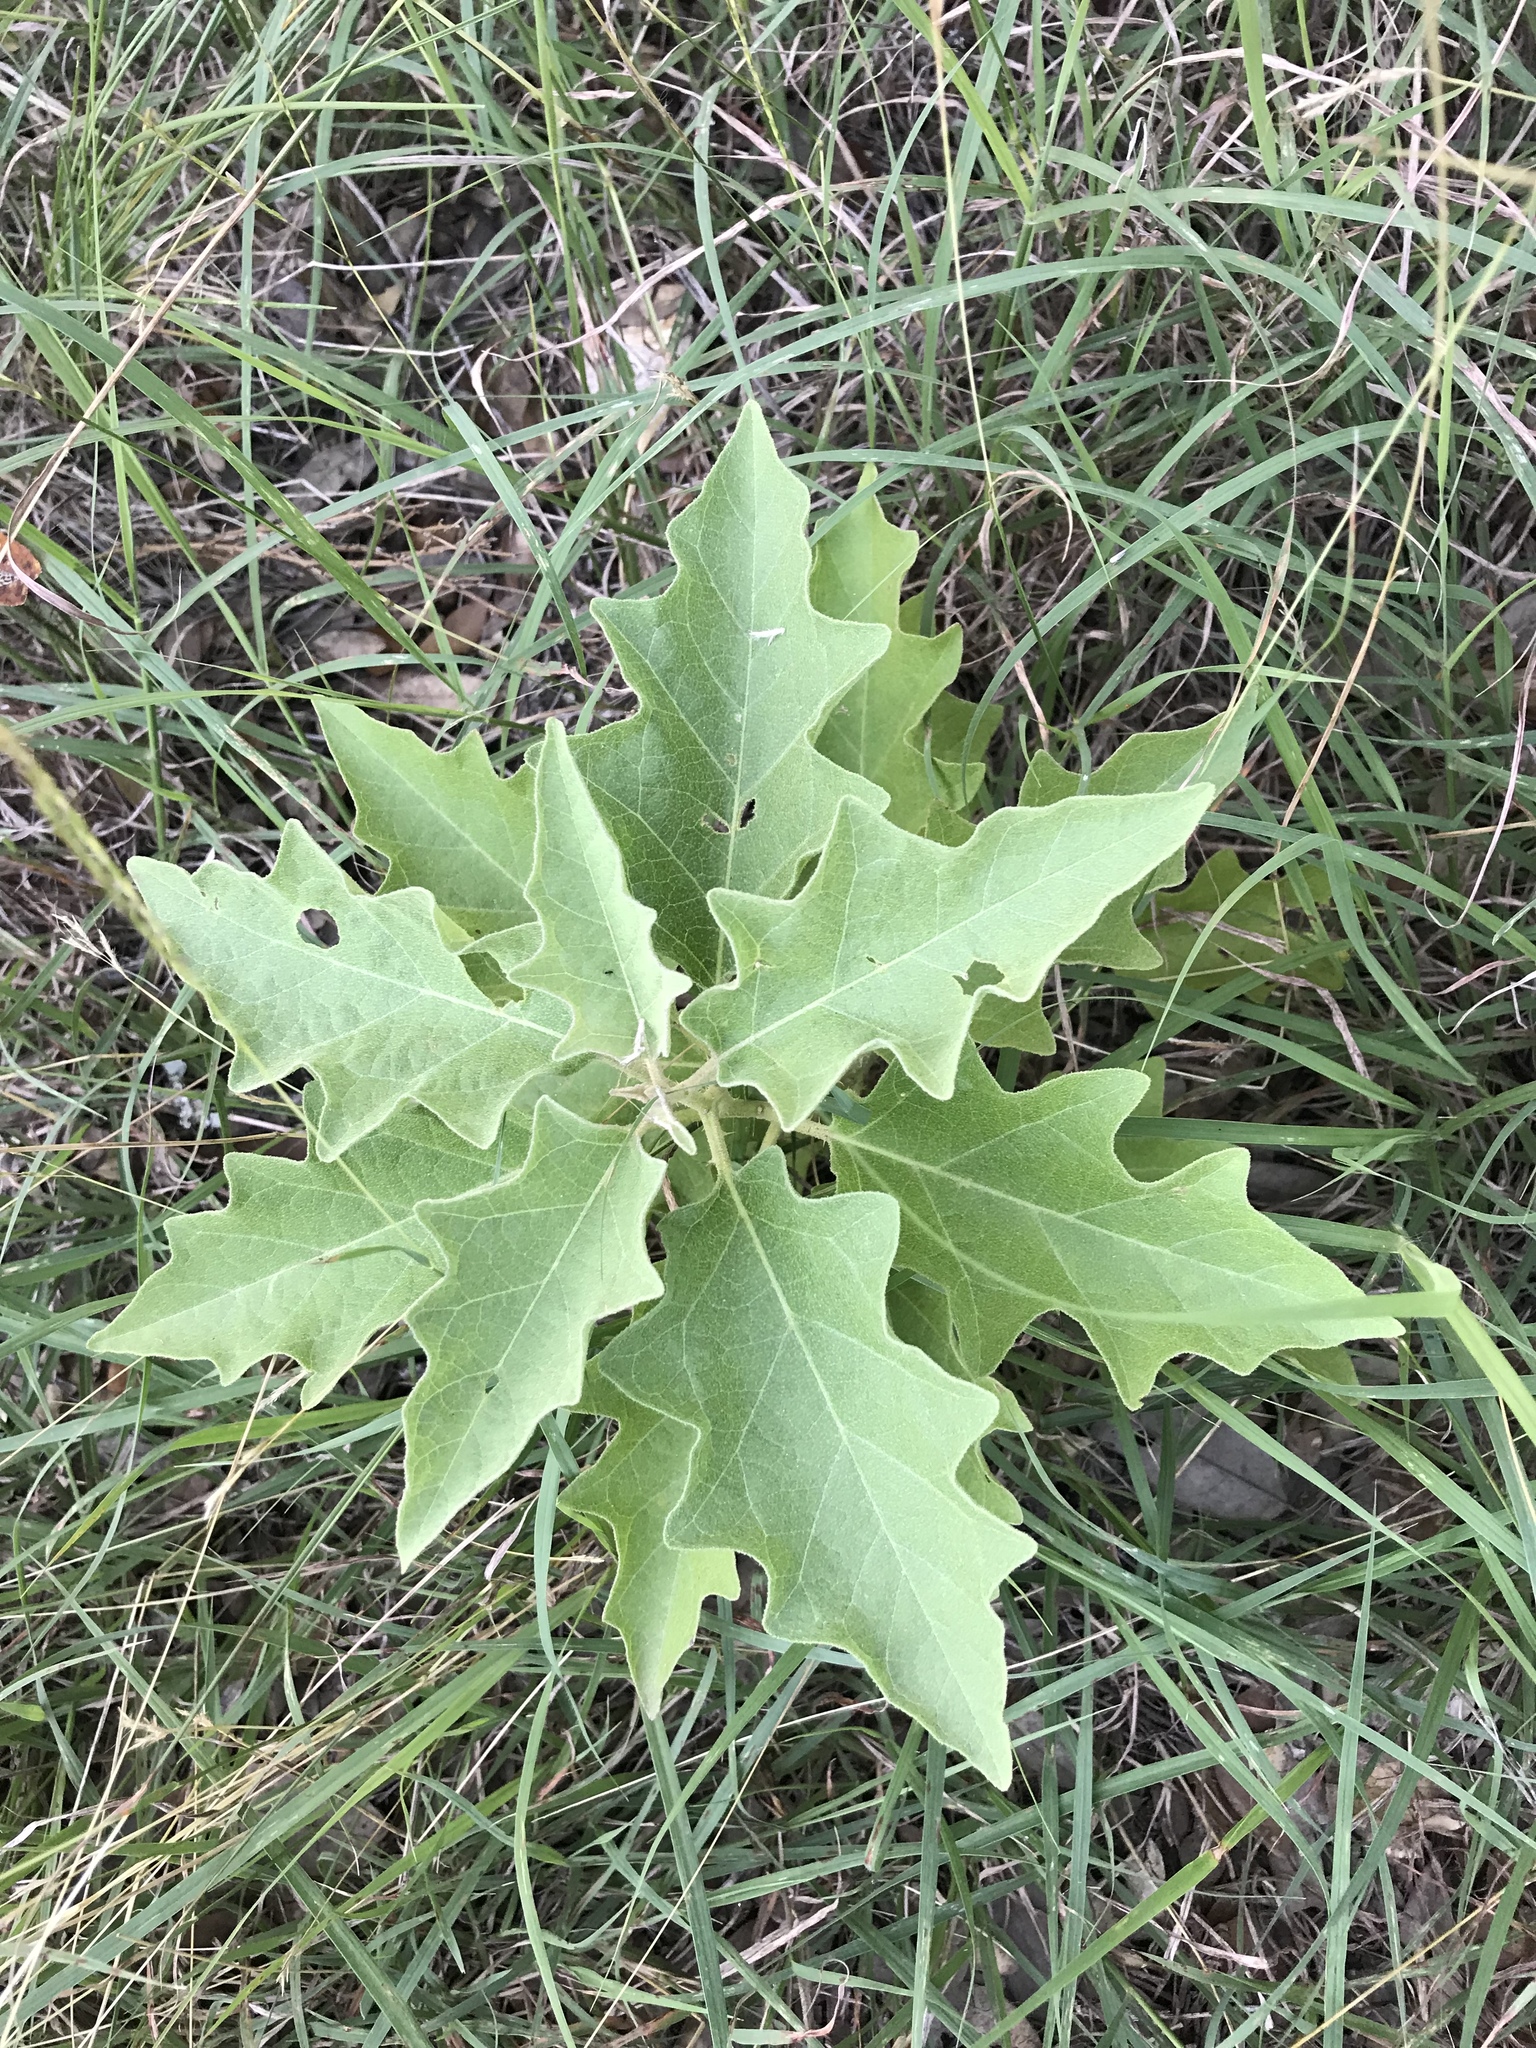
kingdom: Plantae
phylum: Tracheophyta
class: Magnoliopsida
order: Solanales
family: Solanaceae
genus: Solanum
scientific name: Solanum dimidiatum
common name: Carolina horse-nettle
